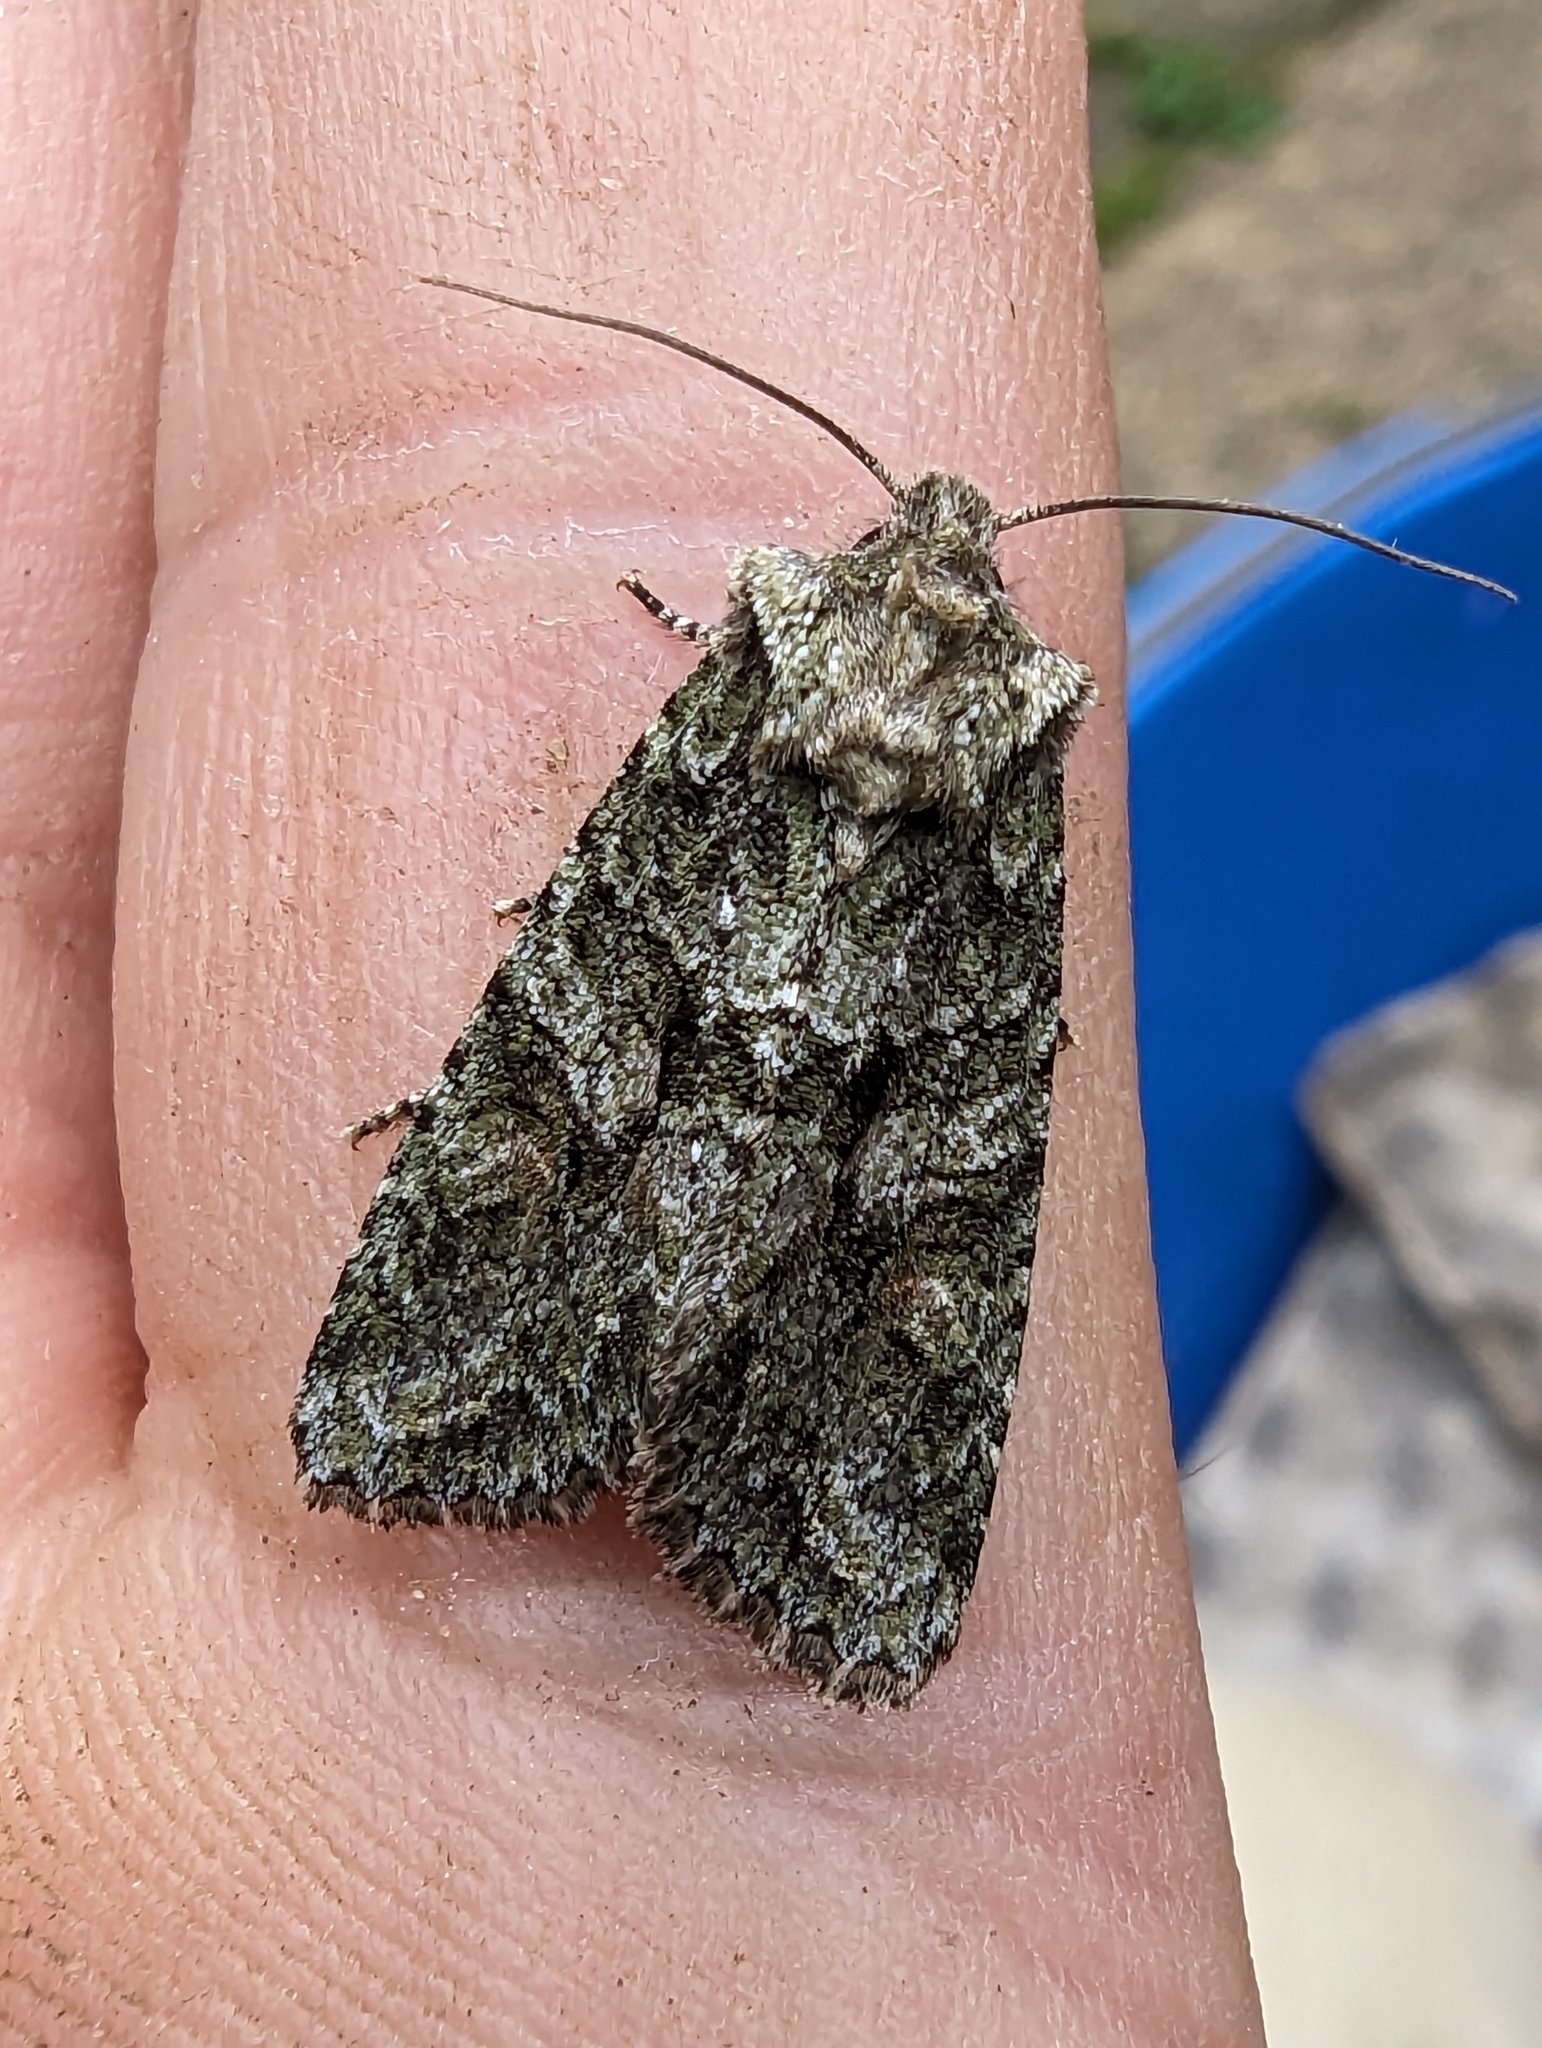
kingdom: Animalia
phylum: Arthropoda
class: Insecta
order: Lepidoptera
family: Noctuidae
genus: Dryobotodes
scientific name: Dryobotodes eremita
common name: Brindled green
